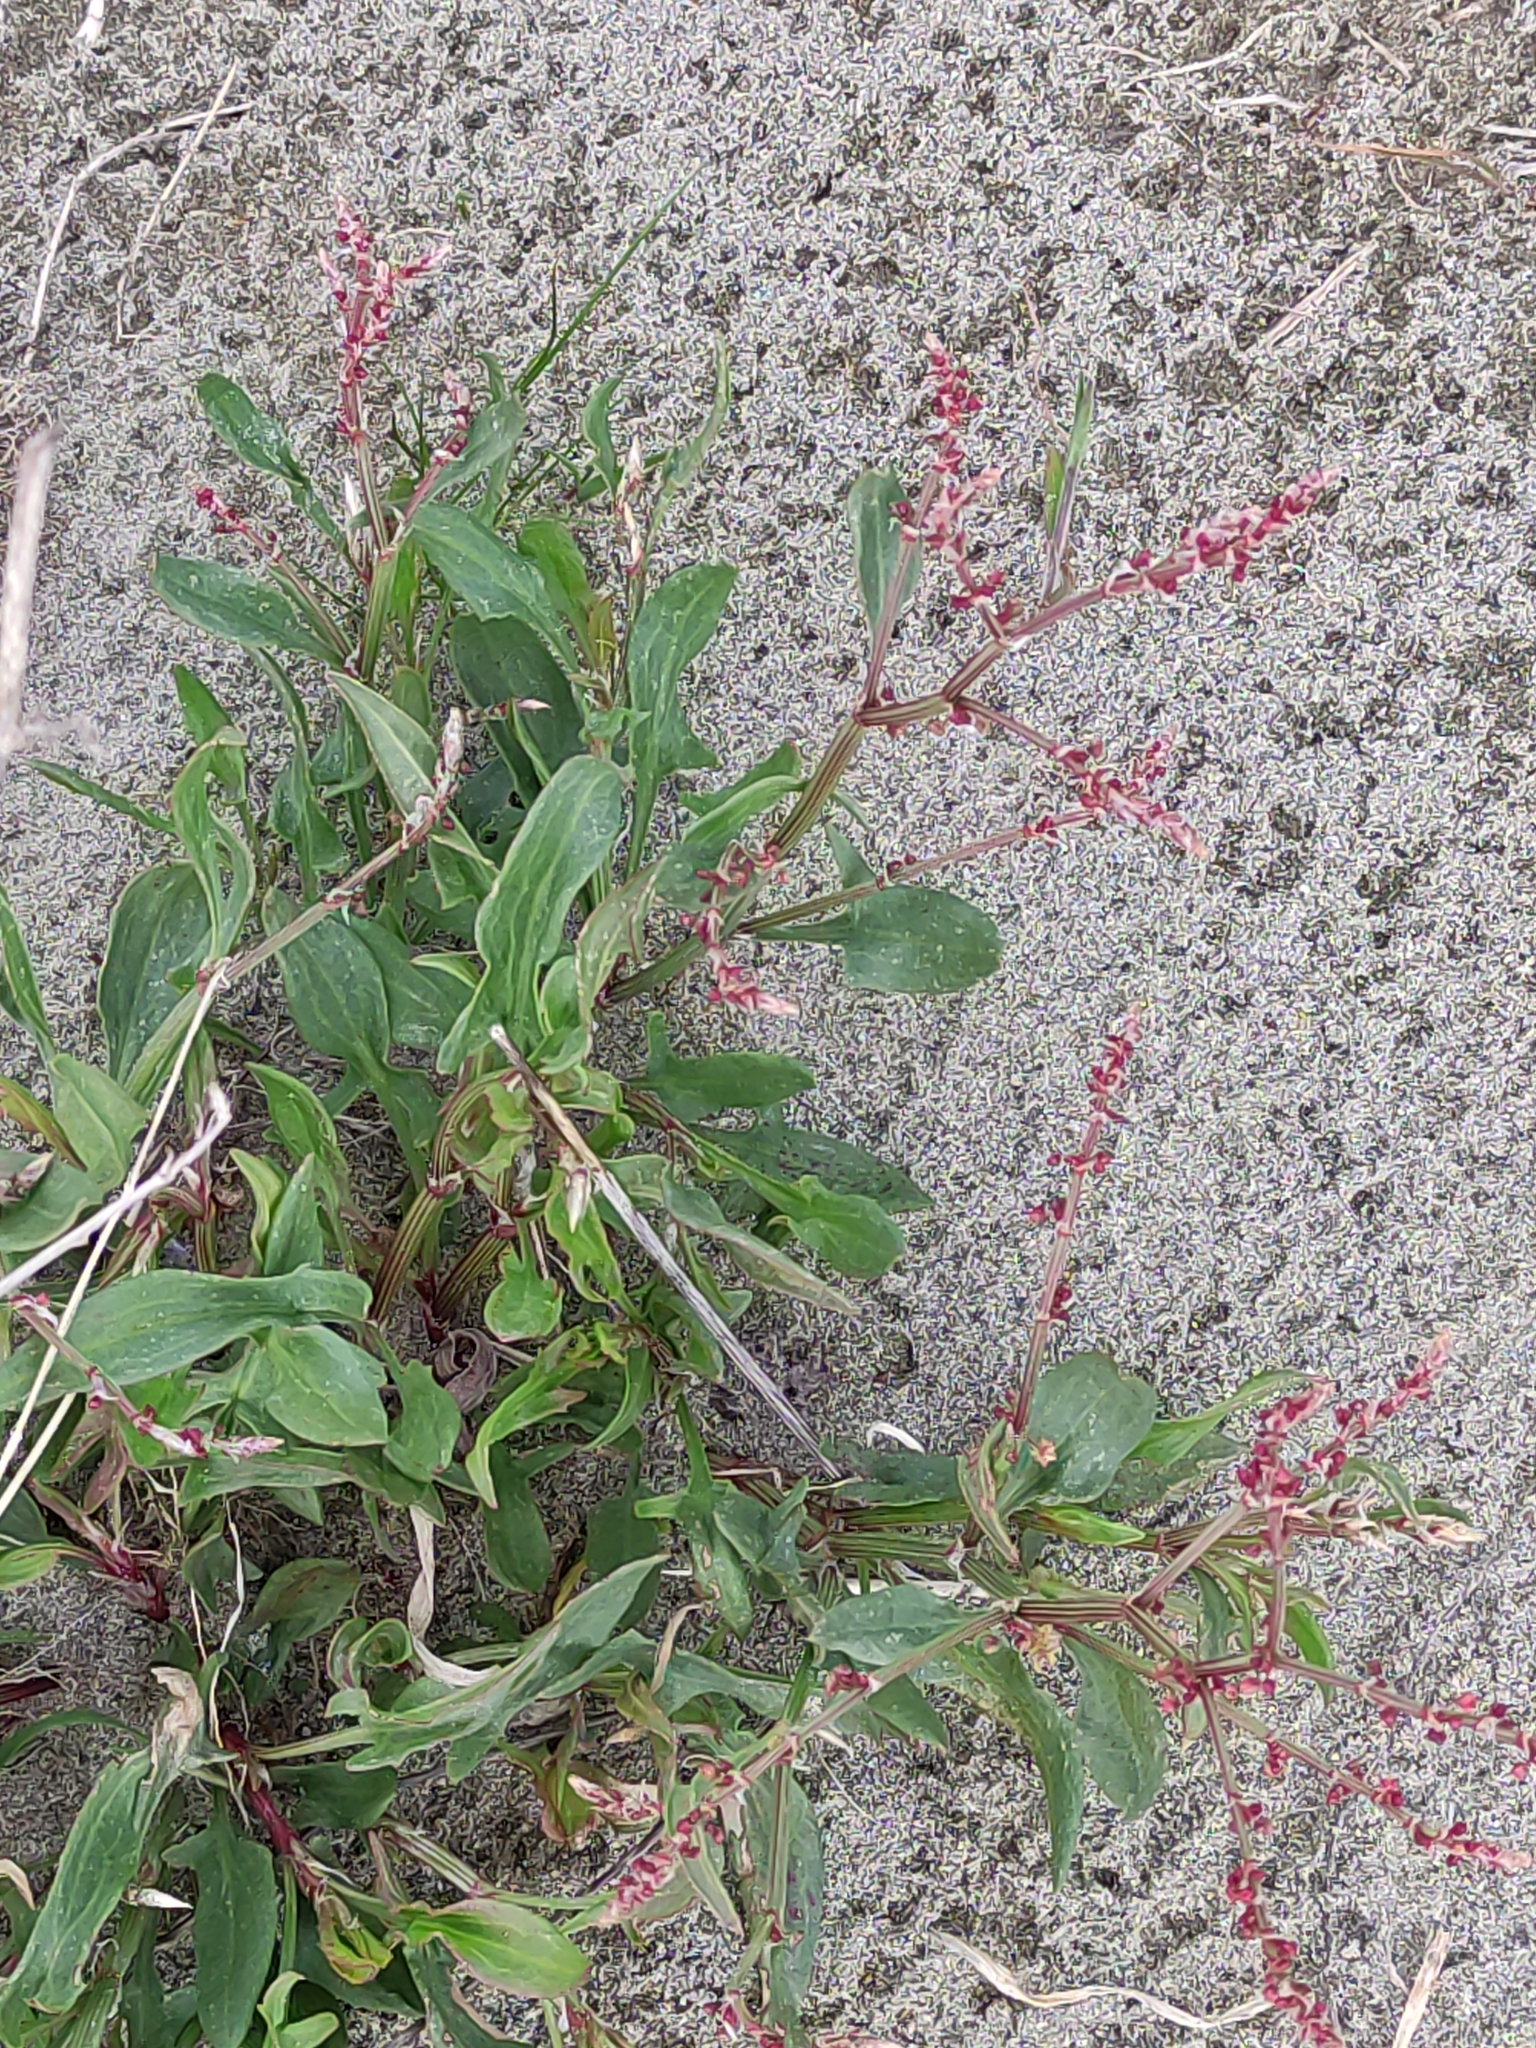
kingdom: Plantae
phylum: Tracheophyta
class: Magnoliopsida
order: Caryophyllales
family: Polygonaceae
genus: Rumex
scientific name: Rumex acetosella
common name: Common sheep sorrel
